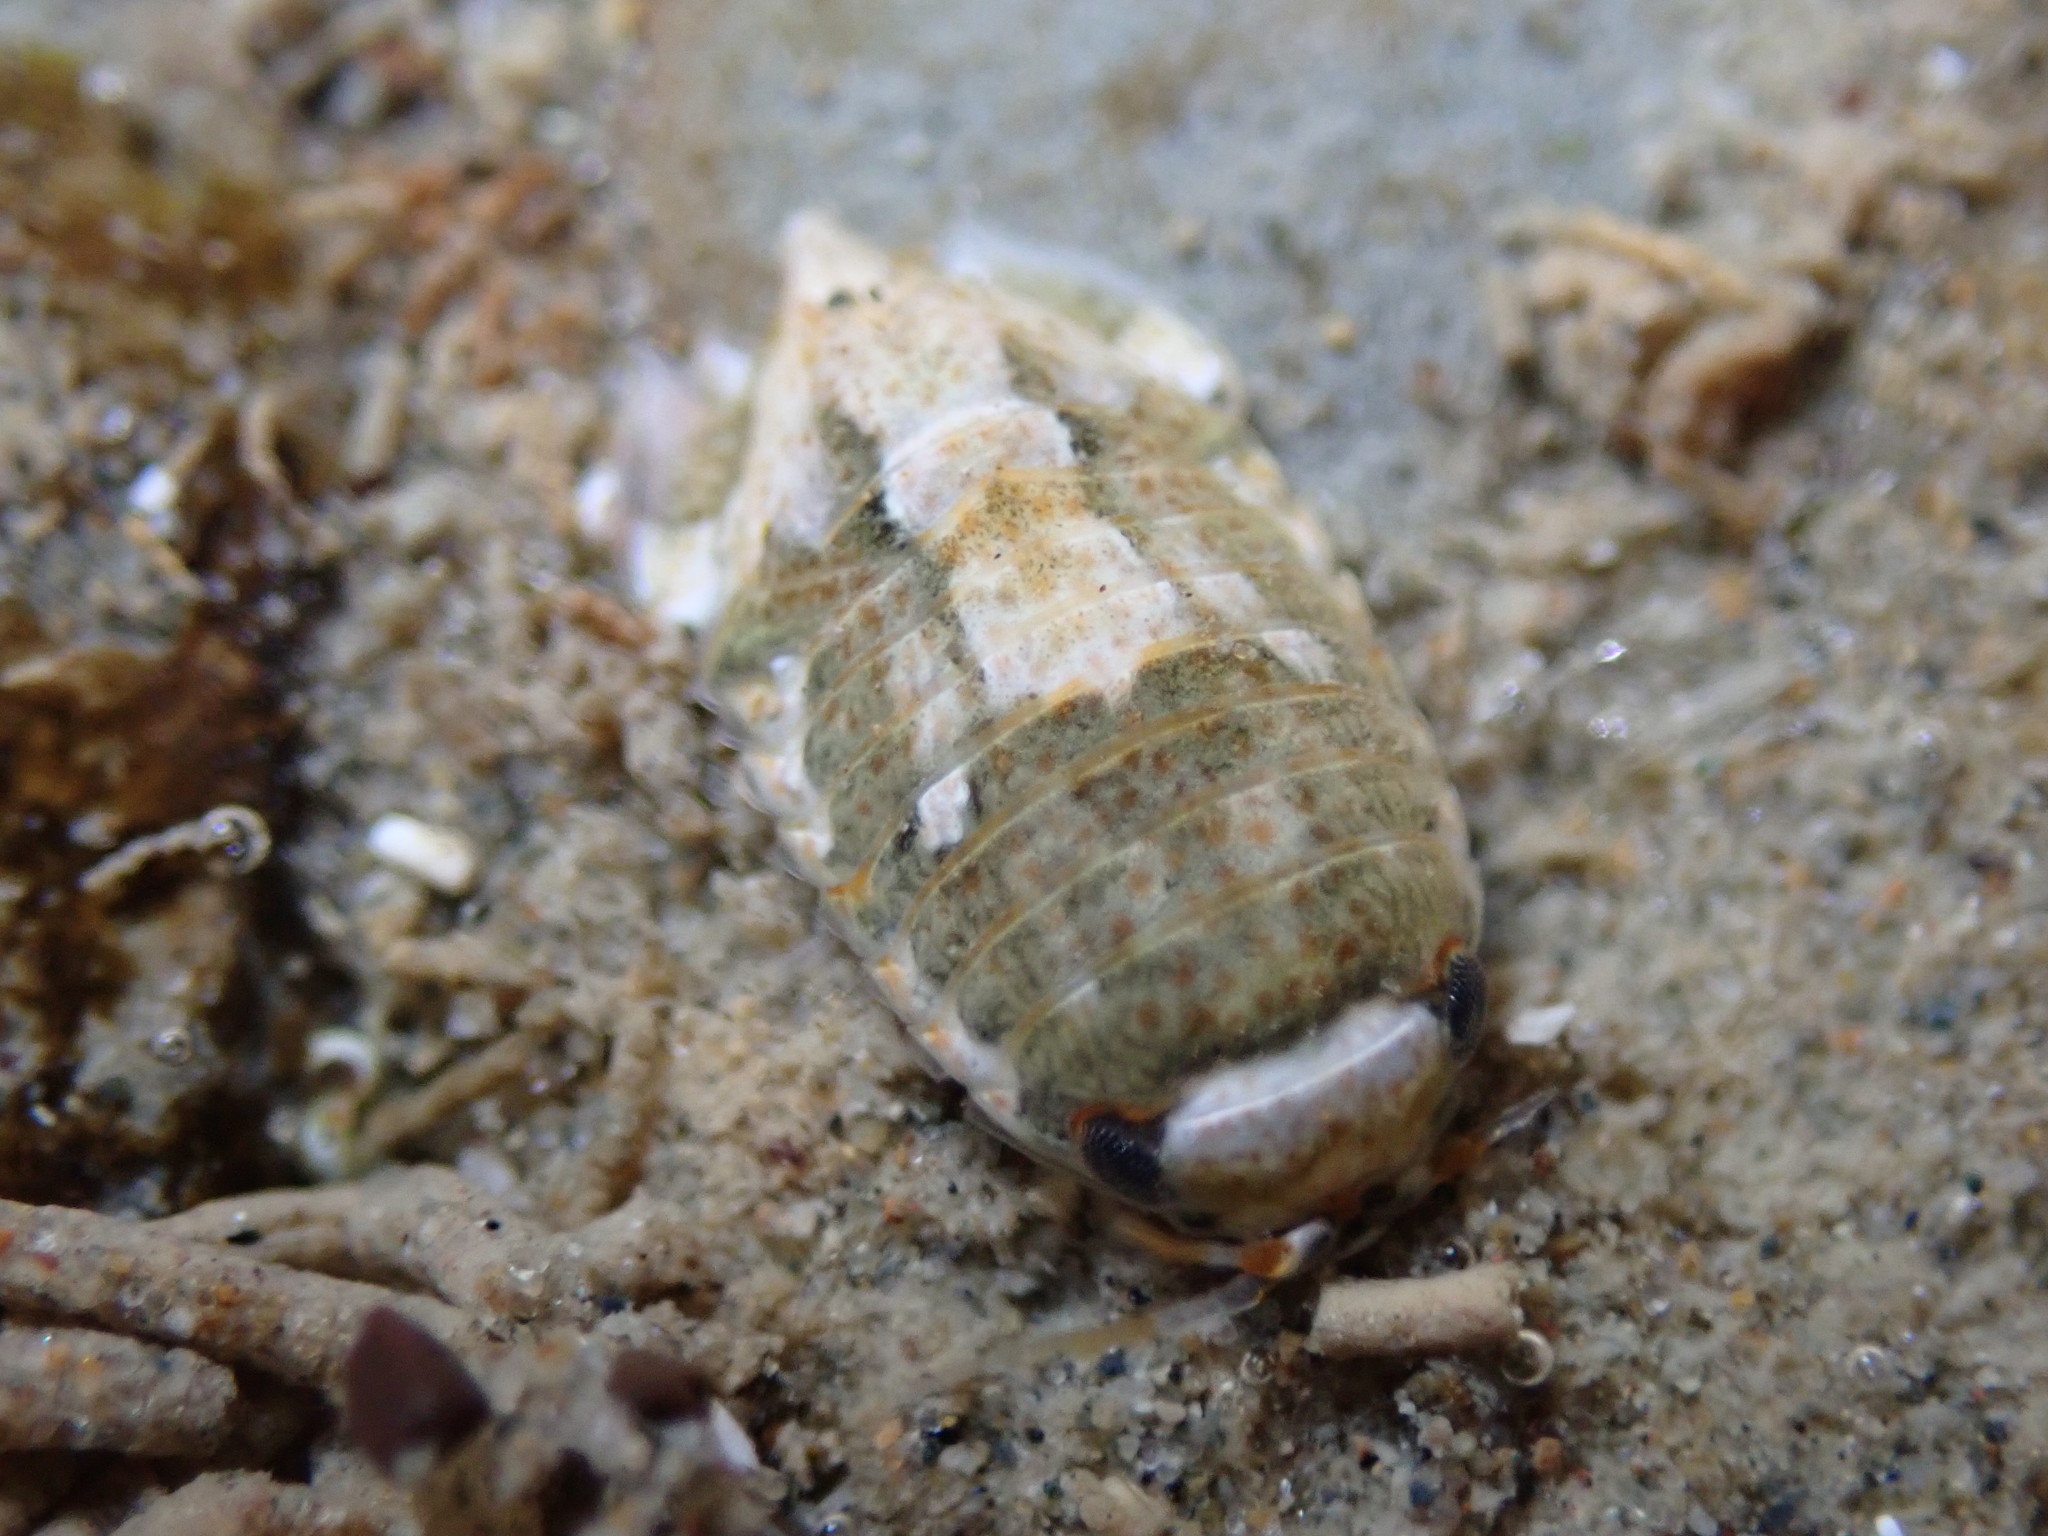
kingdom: Animalia
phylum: Arthropoda
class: Malacostraca
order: Isopoda
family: Sphaeromatidae
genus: Isocladus
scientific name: Isocladus armatus
